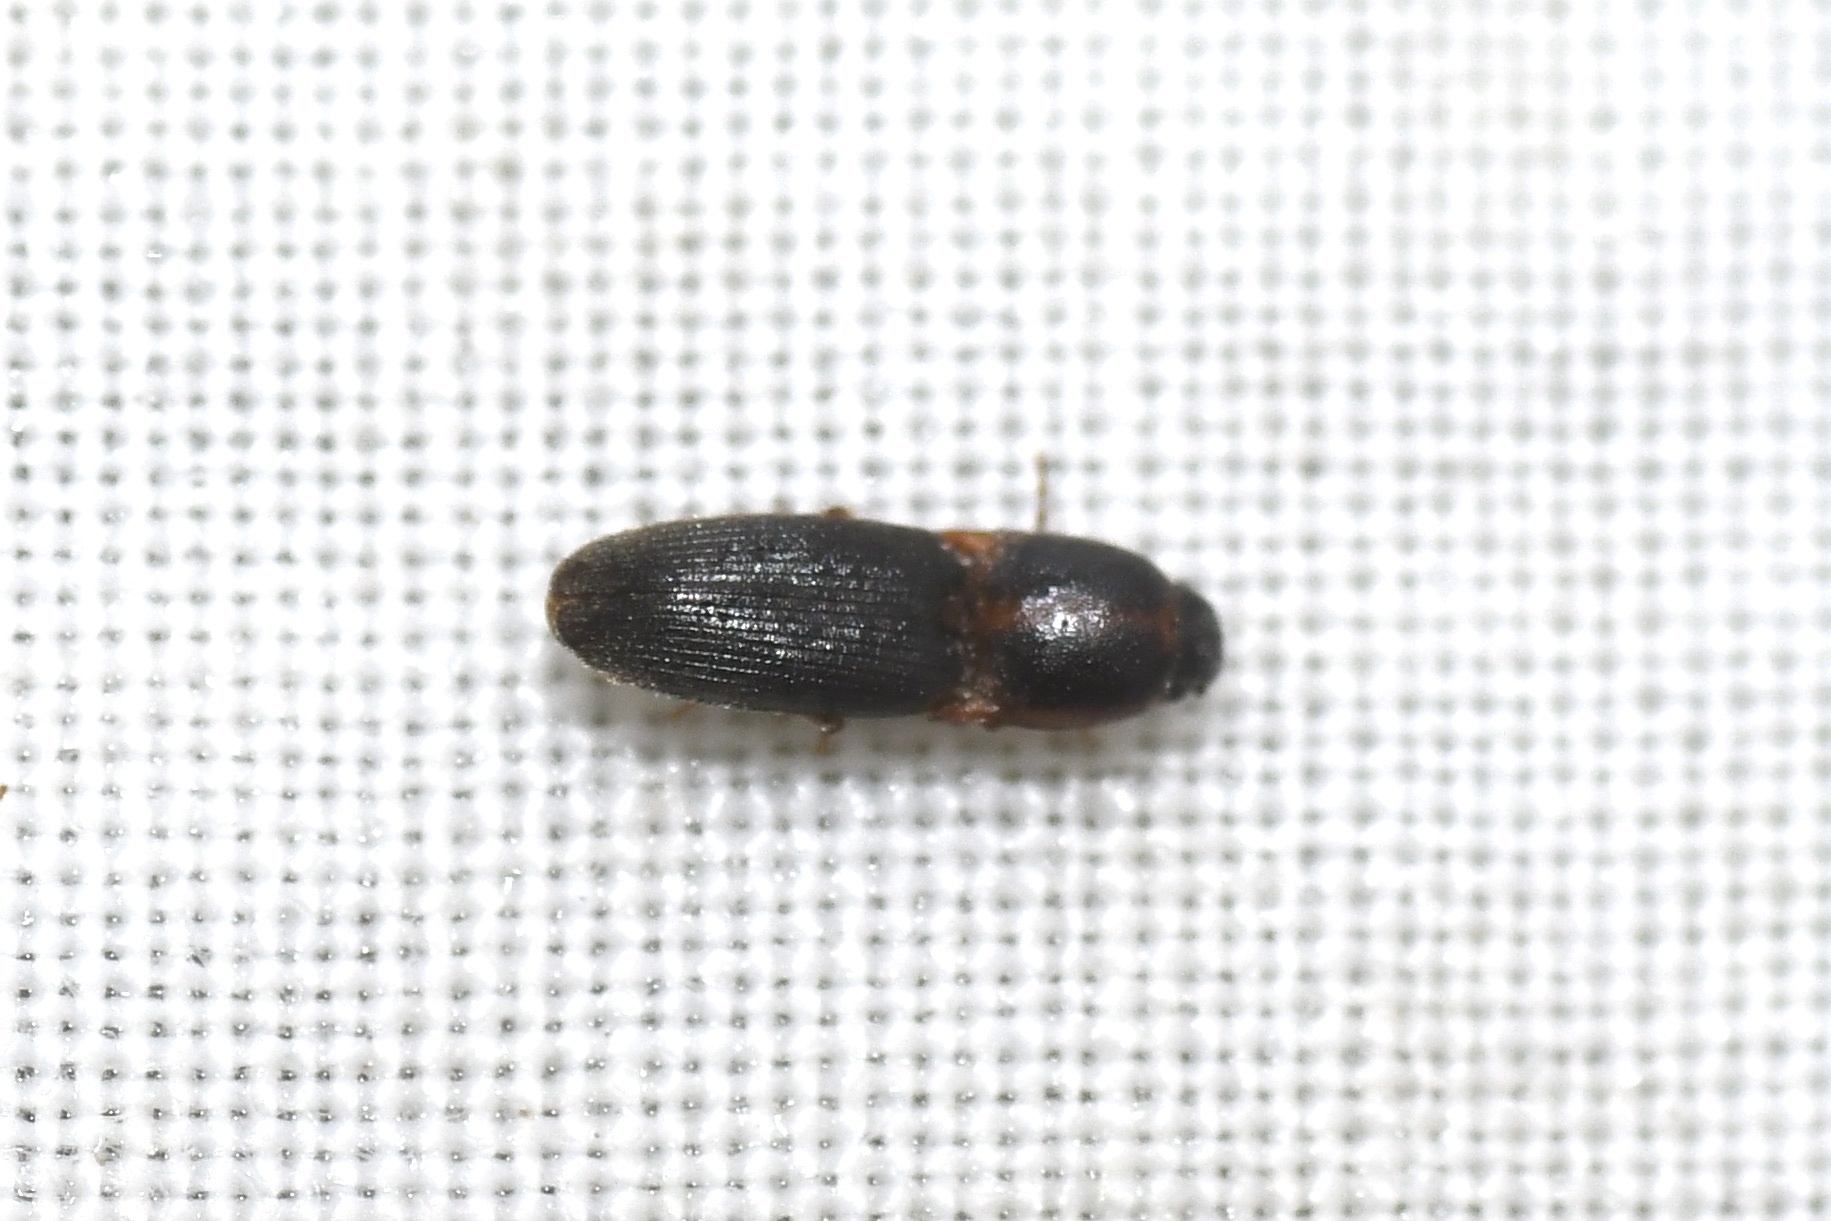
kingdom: Animalia
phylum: Arthropoda
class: Insecta
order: Coleoptera
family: Elateridae
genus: Monocrepidius
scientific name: Monocrepidius
